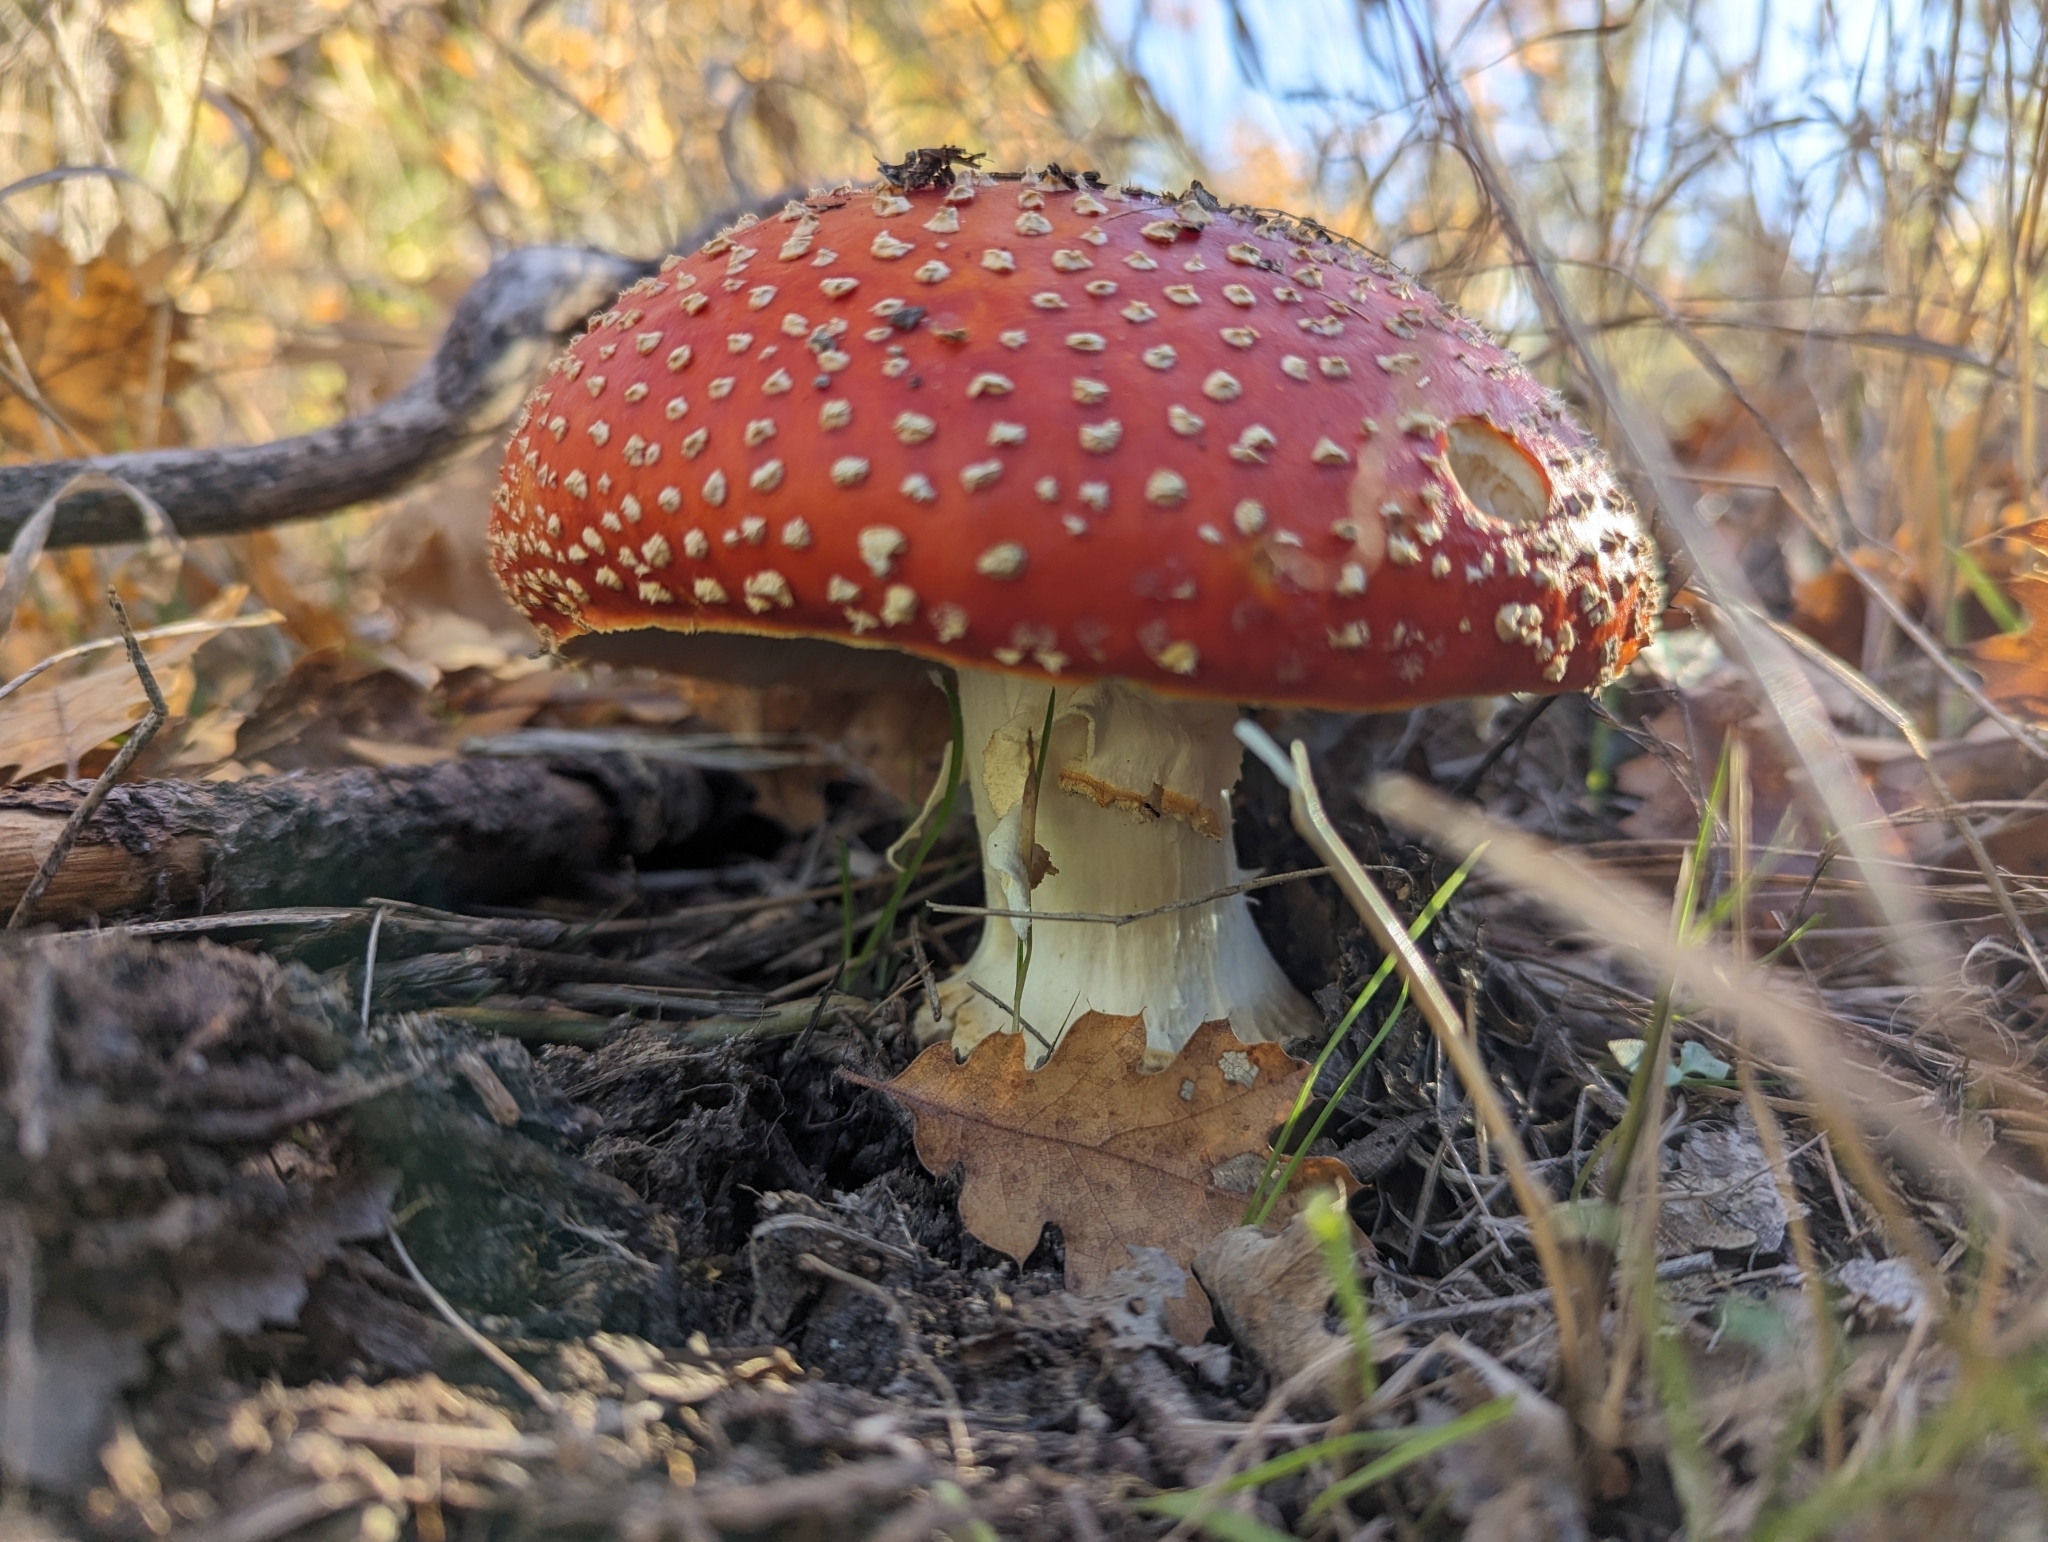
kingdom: Fungi
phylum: Basidiomycota
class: Agaricomycetes
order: Agaricales
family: Amanitaceae
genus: Amanita
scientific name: Amanita muscaria
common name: Fly agaric
